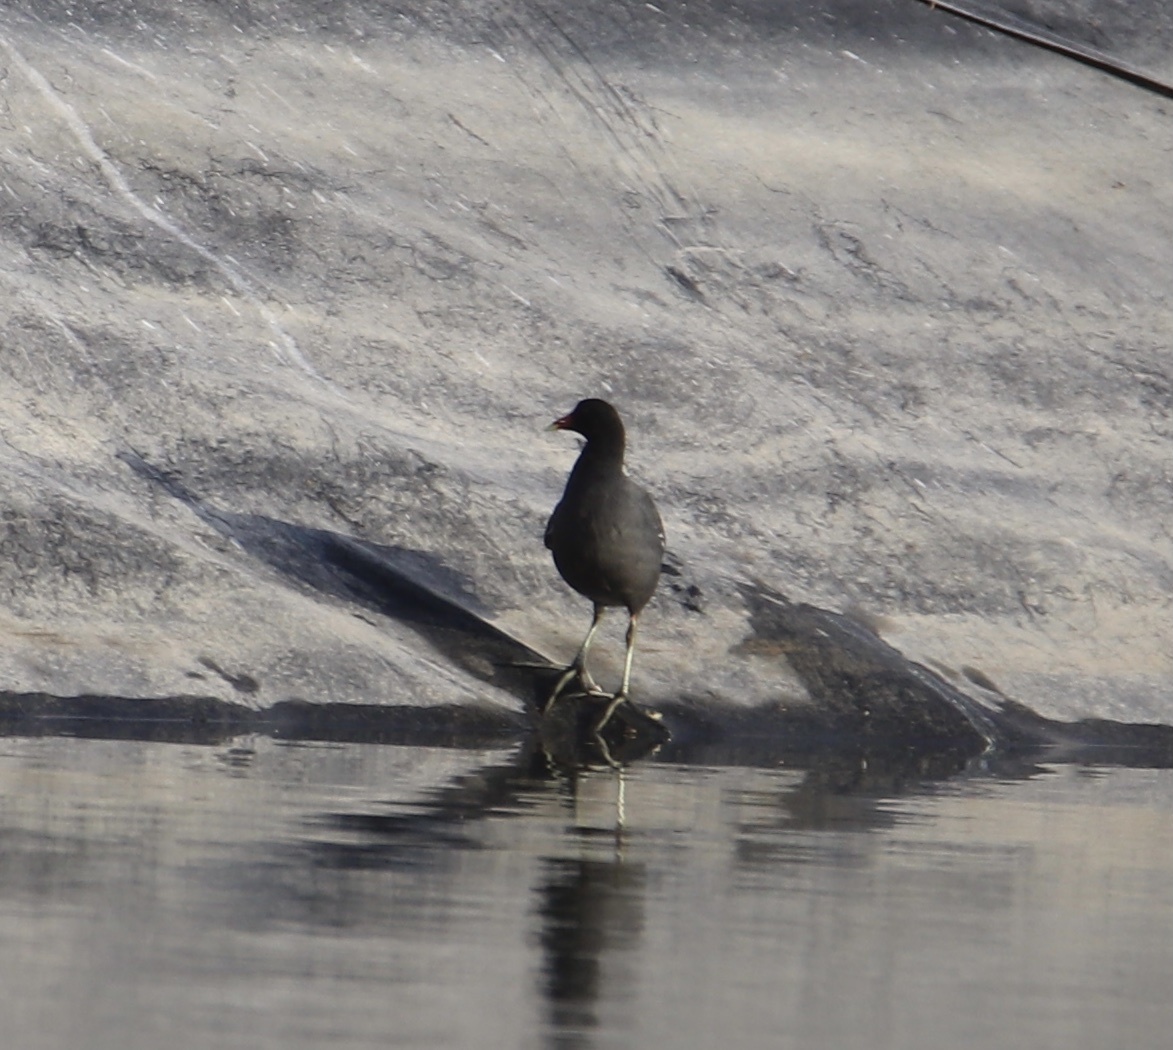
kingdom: Animalia
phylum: Chordata
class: Aves
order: Gruiformes
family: Rallidae
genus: Gallinula
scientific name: Gallinula chloropus
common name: Common moorhen
